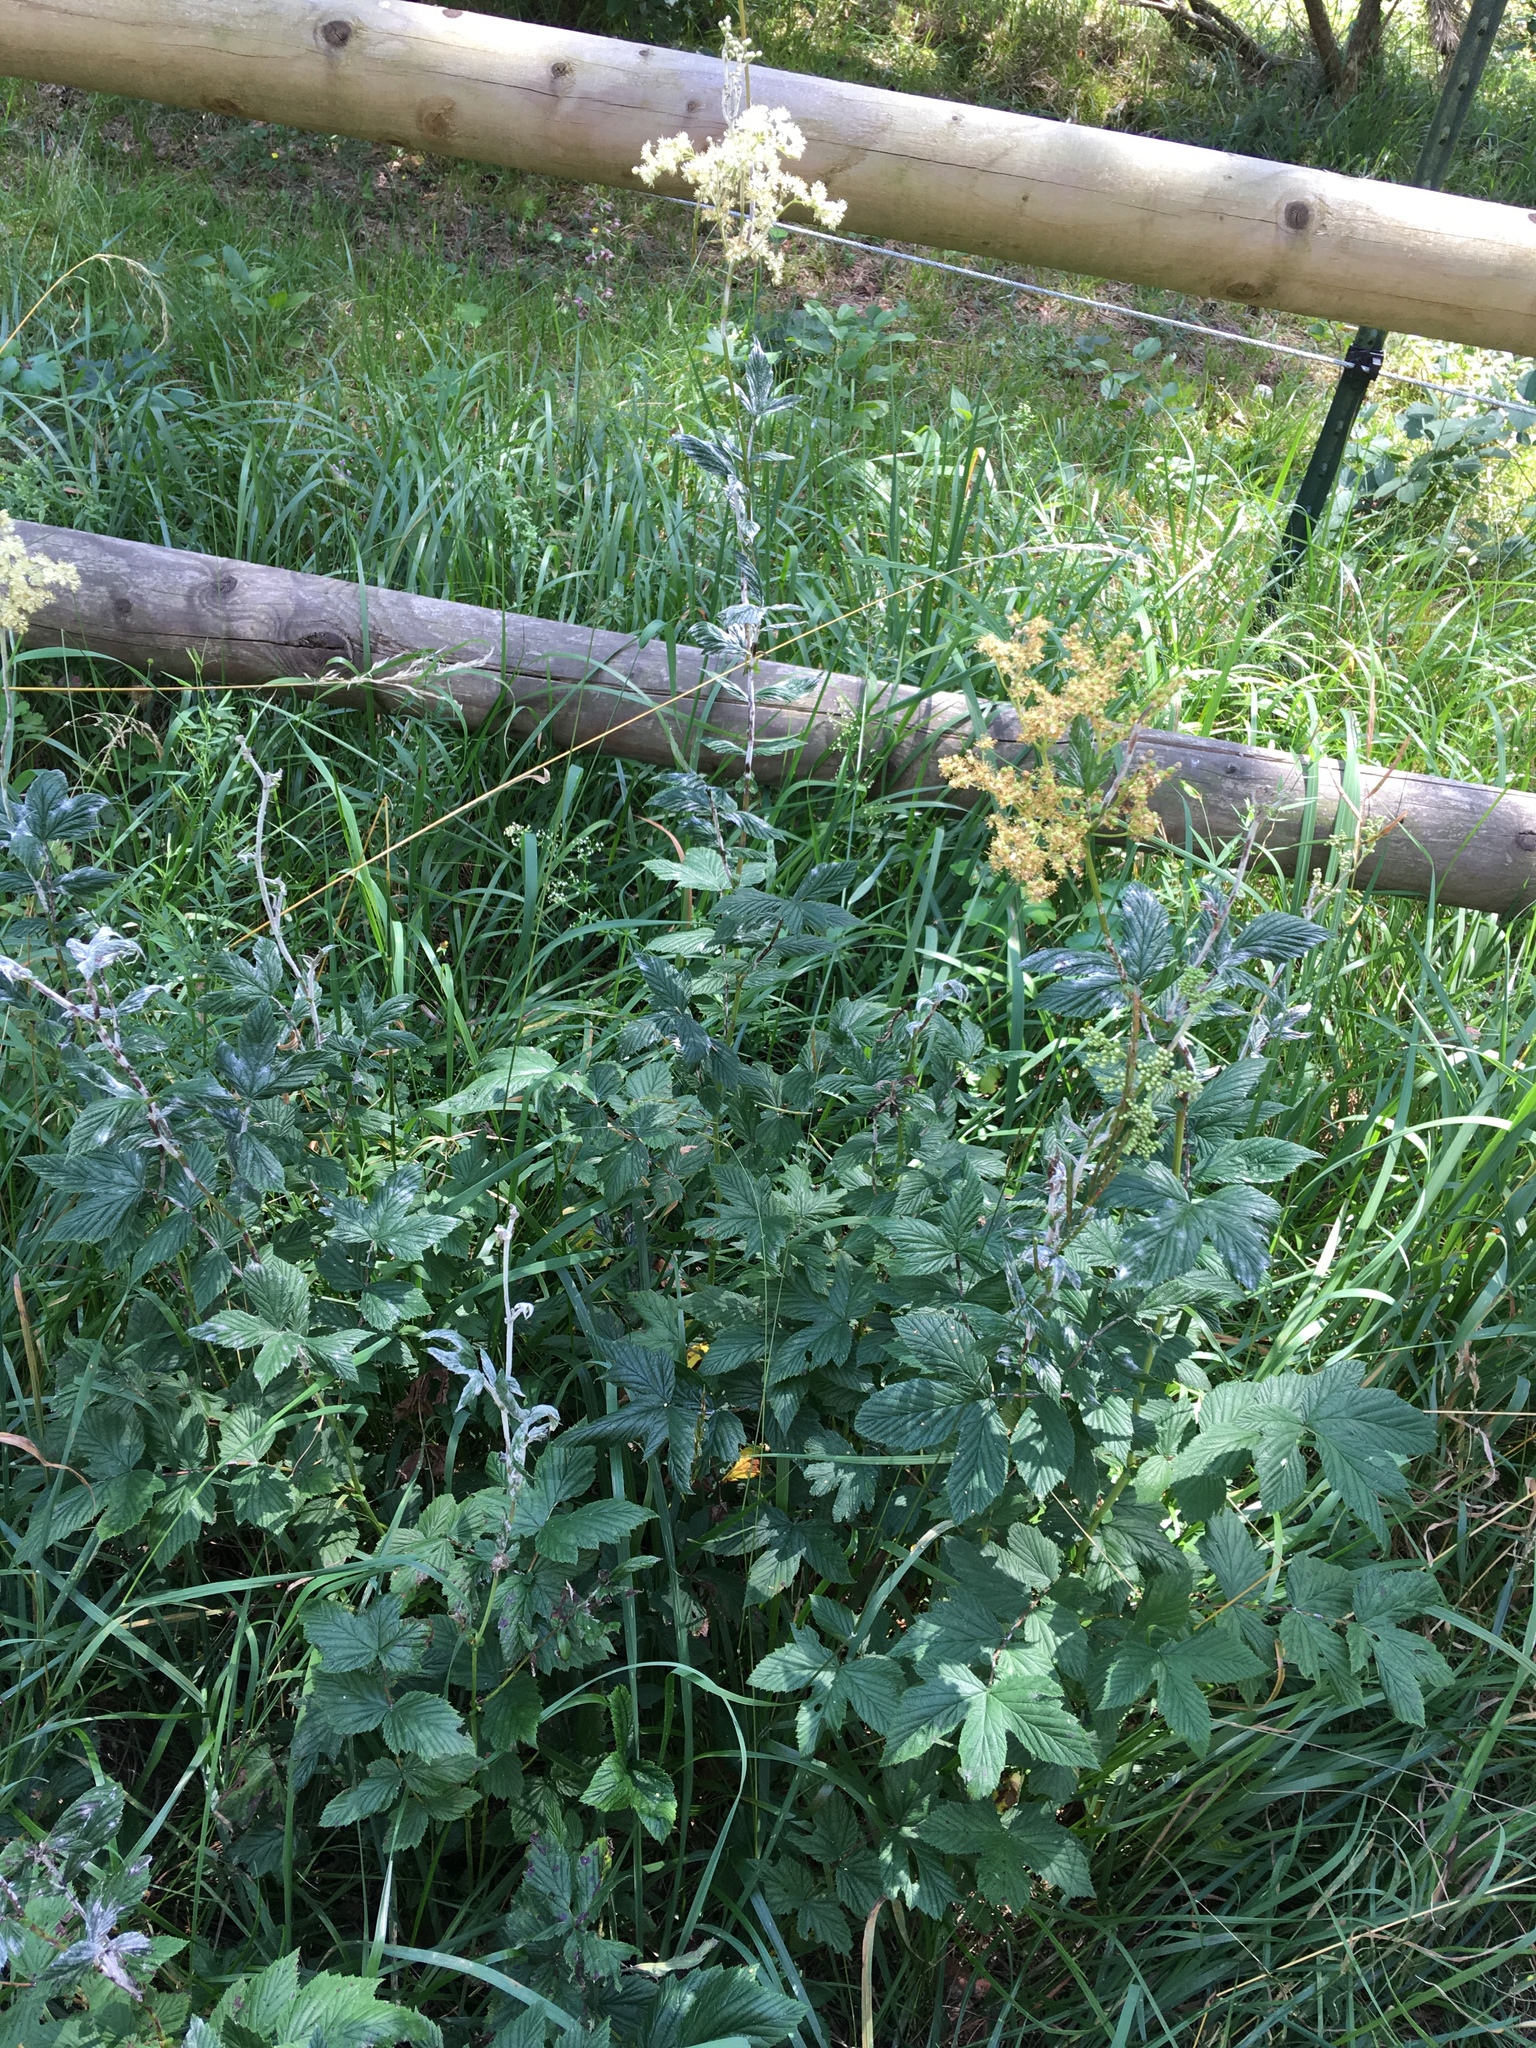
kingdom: Plantae
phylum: Tracheophyta
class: Magnoliopsida
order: Rosales
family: Rosaceae
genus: Filipendula
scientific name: Filipendula ulmaria
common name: Meadowsweet
